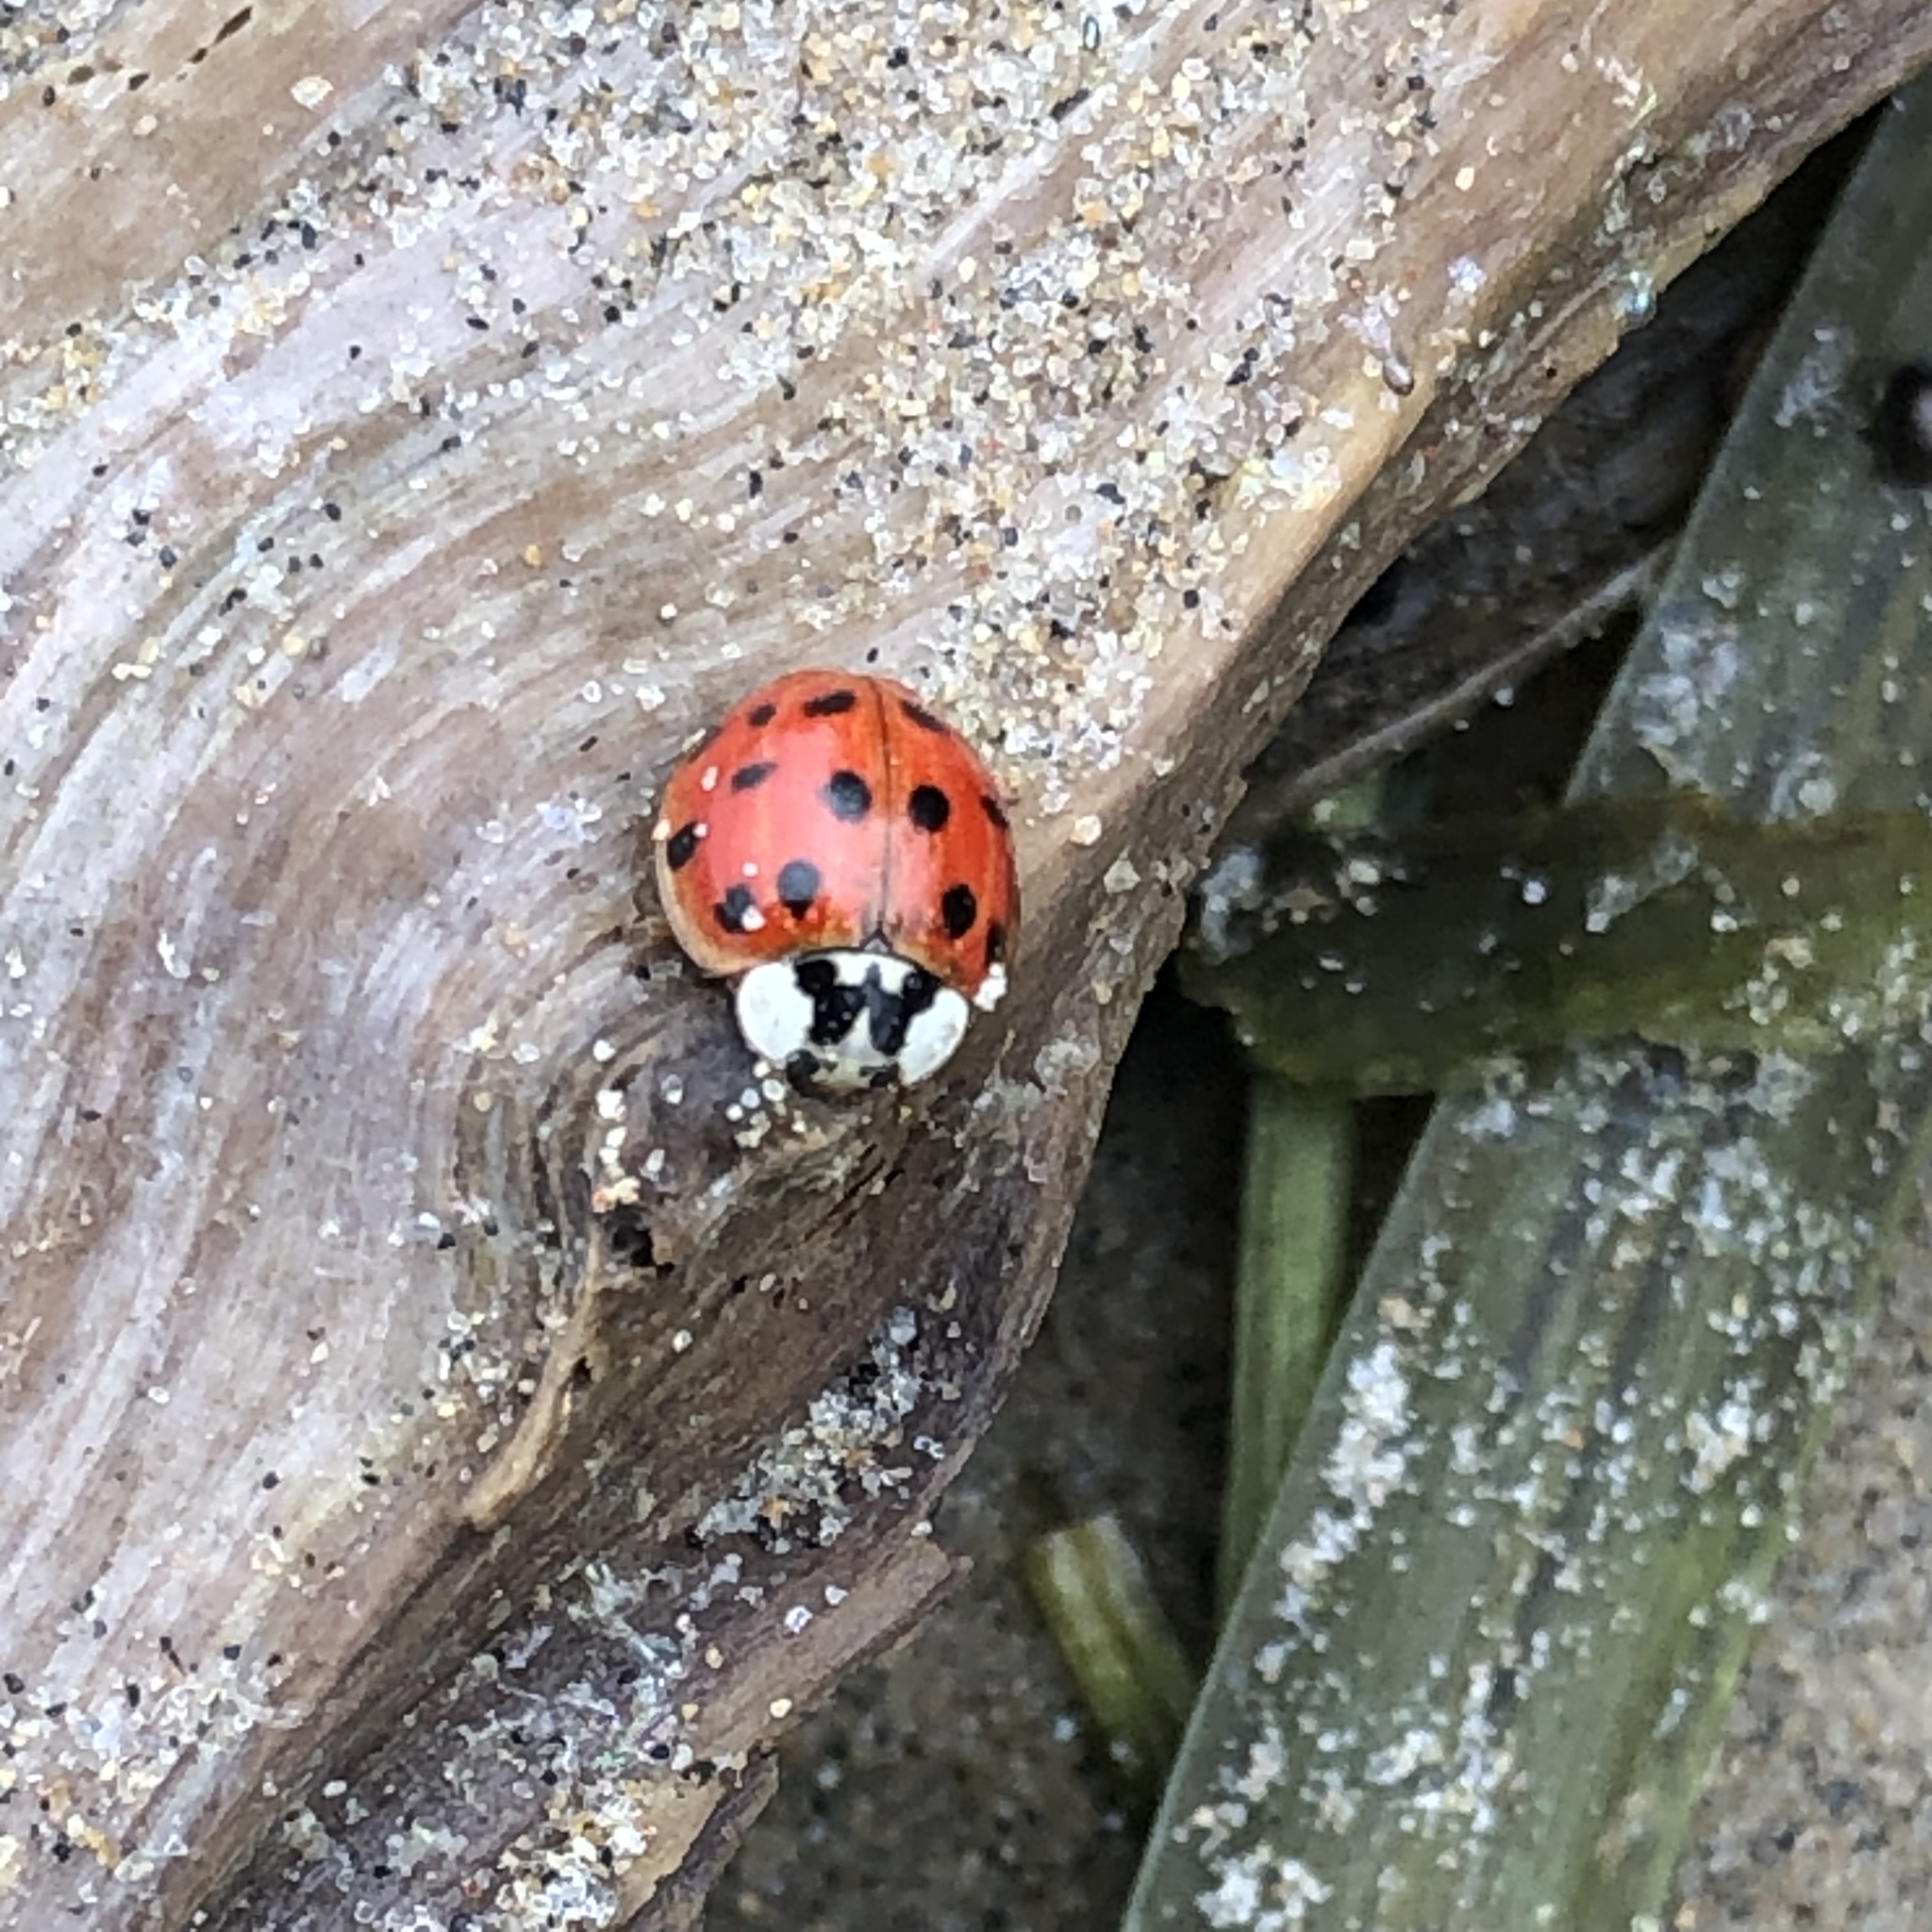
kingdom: Animalia
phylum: Arthropoda
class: Insecta
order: Coleoptera
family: Coccinellidae
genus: Harmonia
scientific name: Harmonia axyridis
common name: Harlequin ladybird
